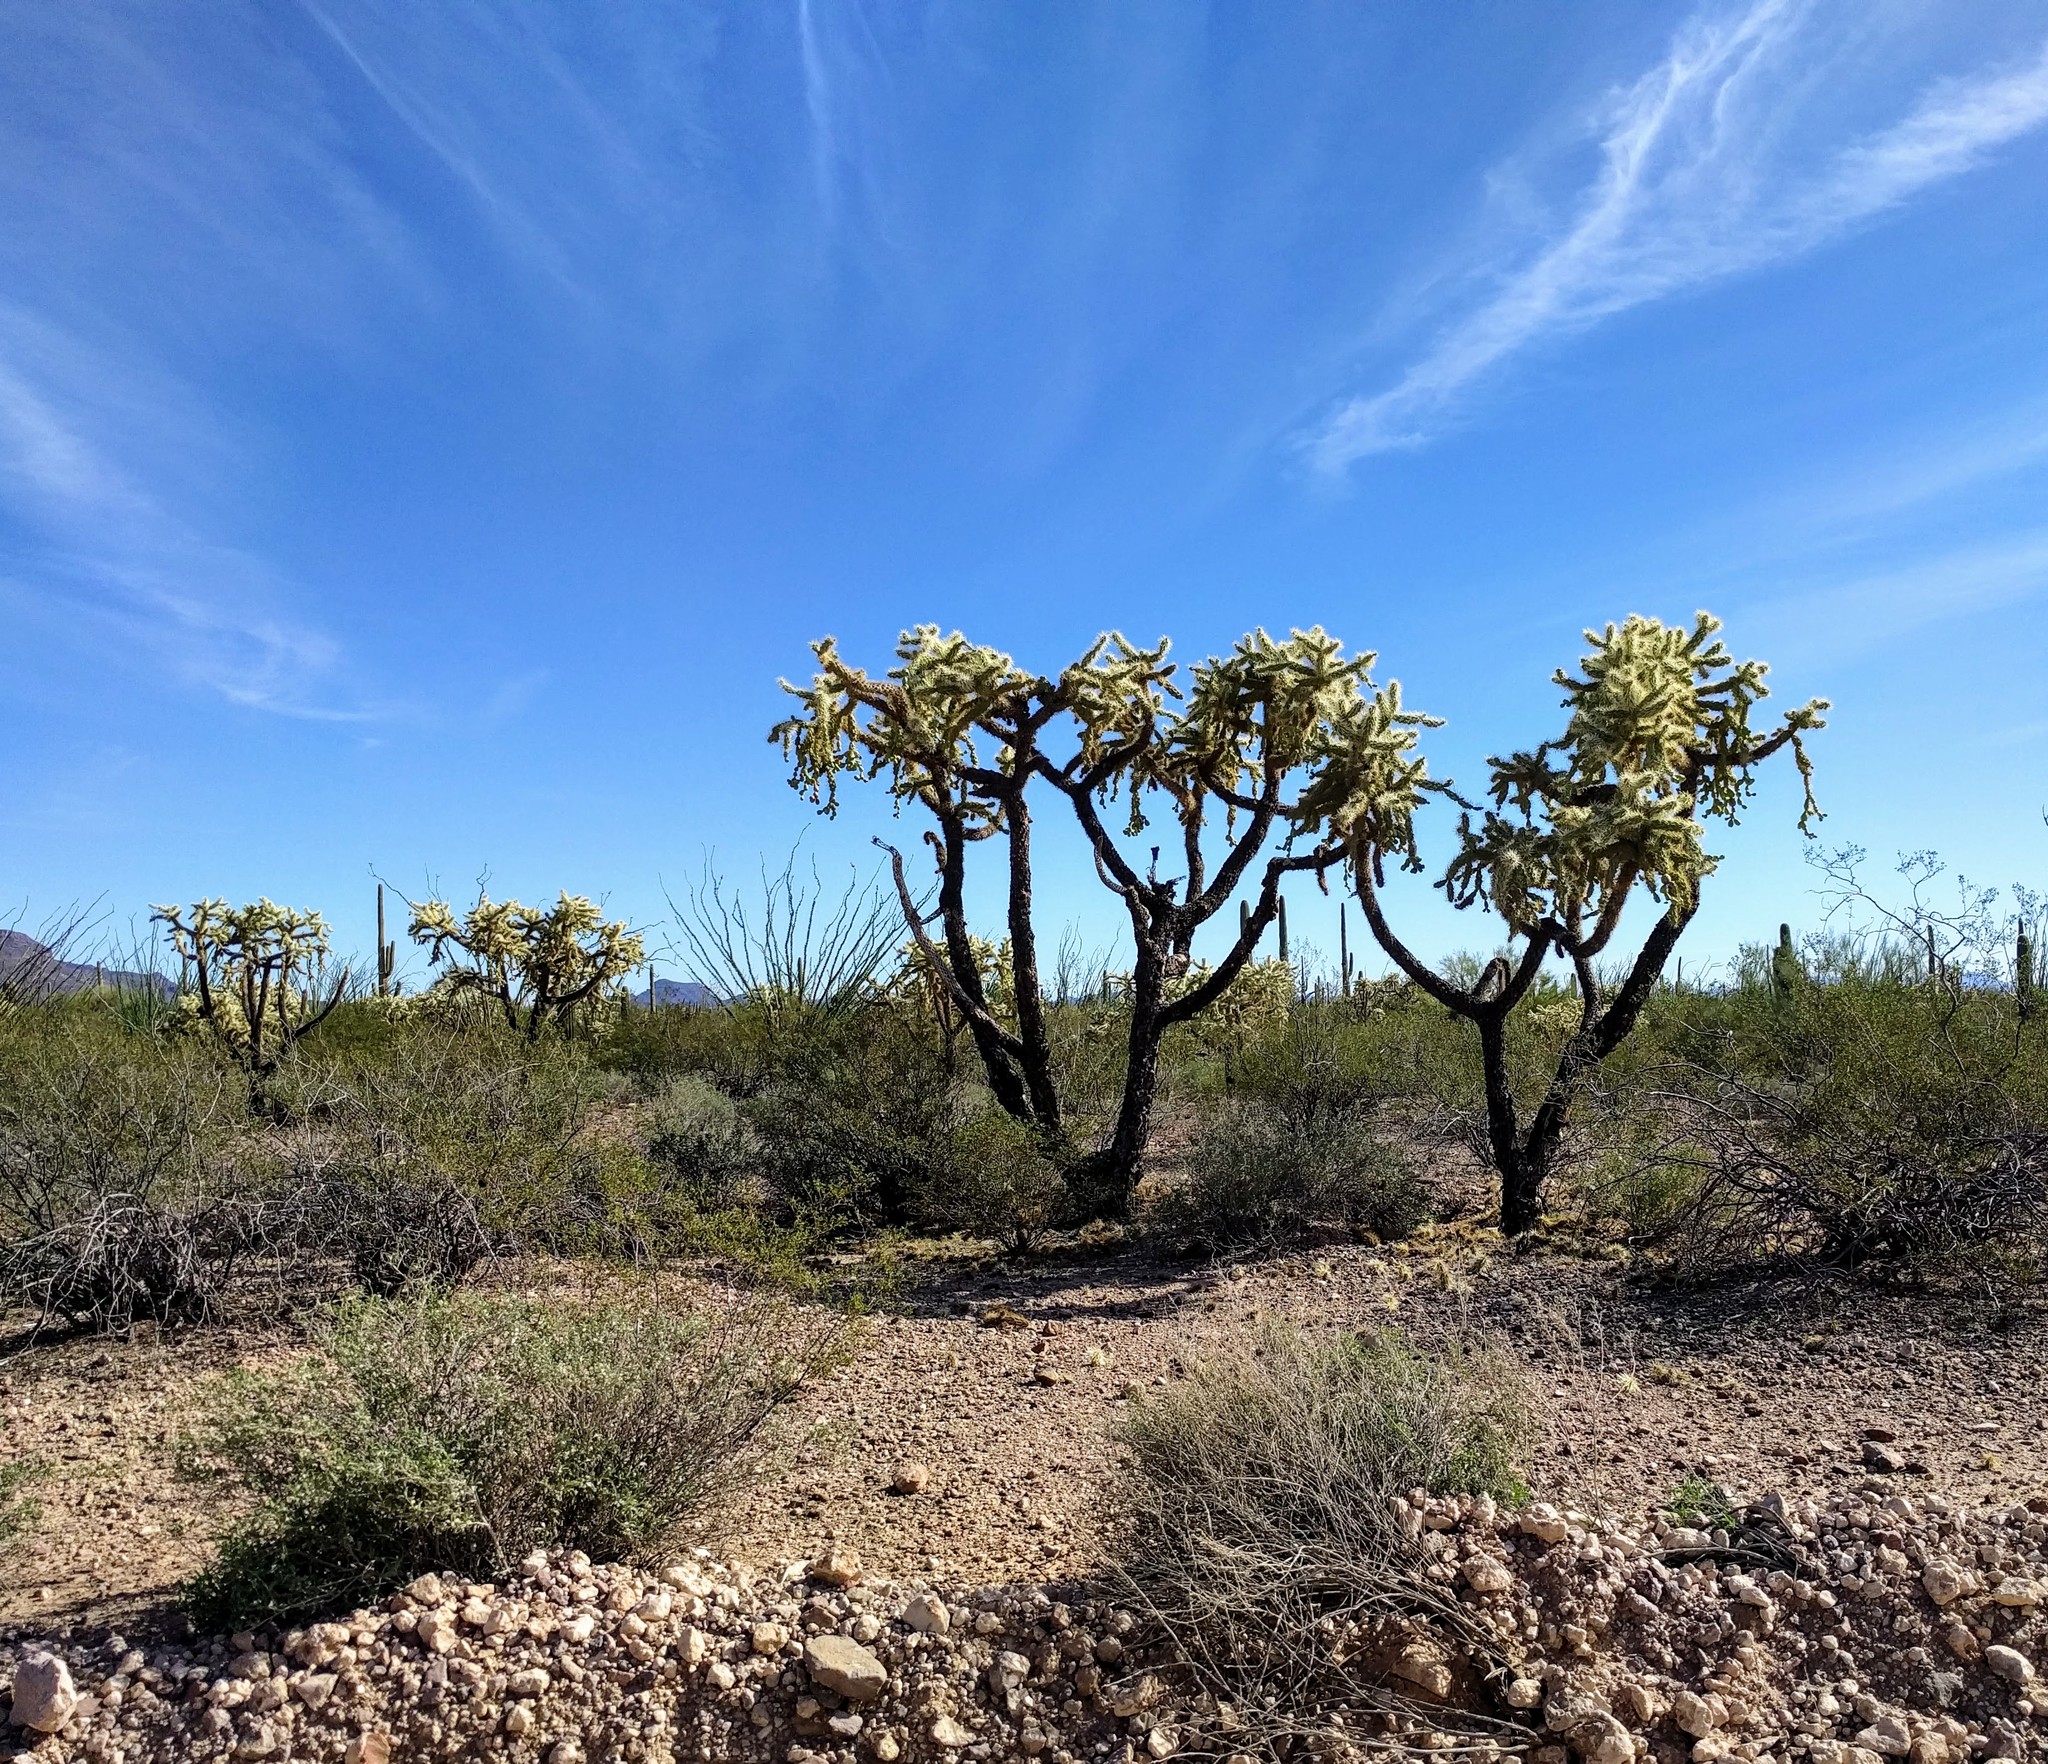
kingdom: Plantae
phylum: Tracheophyta
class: Magnoliopsida
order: Caryophyllales
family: Cactaceae
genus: Cylindropuntia
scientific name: Cylindropuntia fulgida
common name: Jumping cholla
